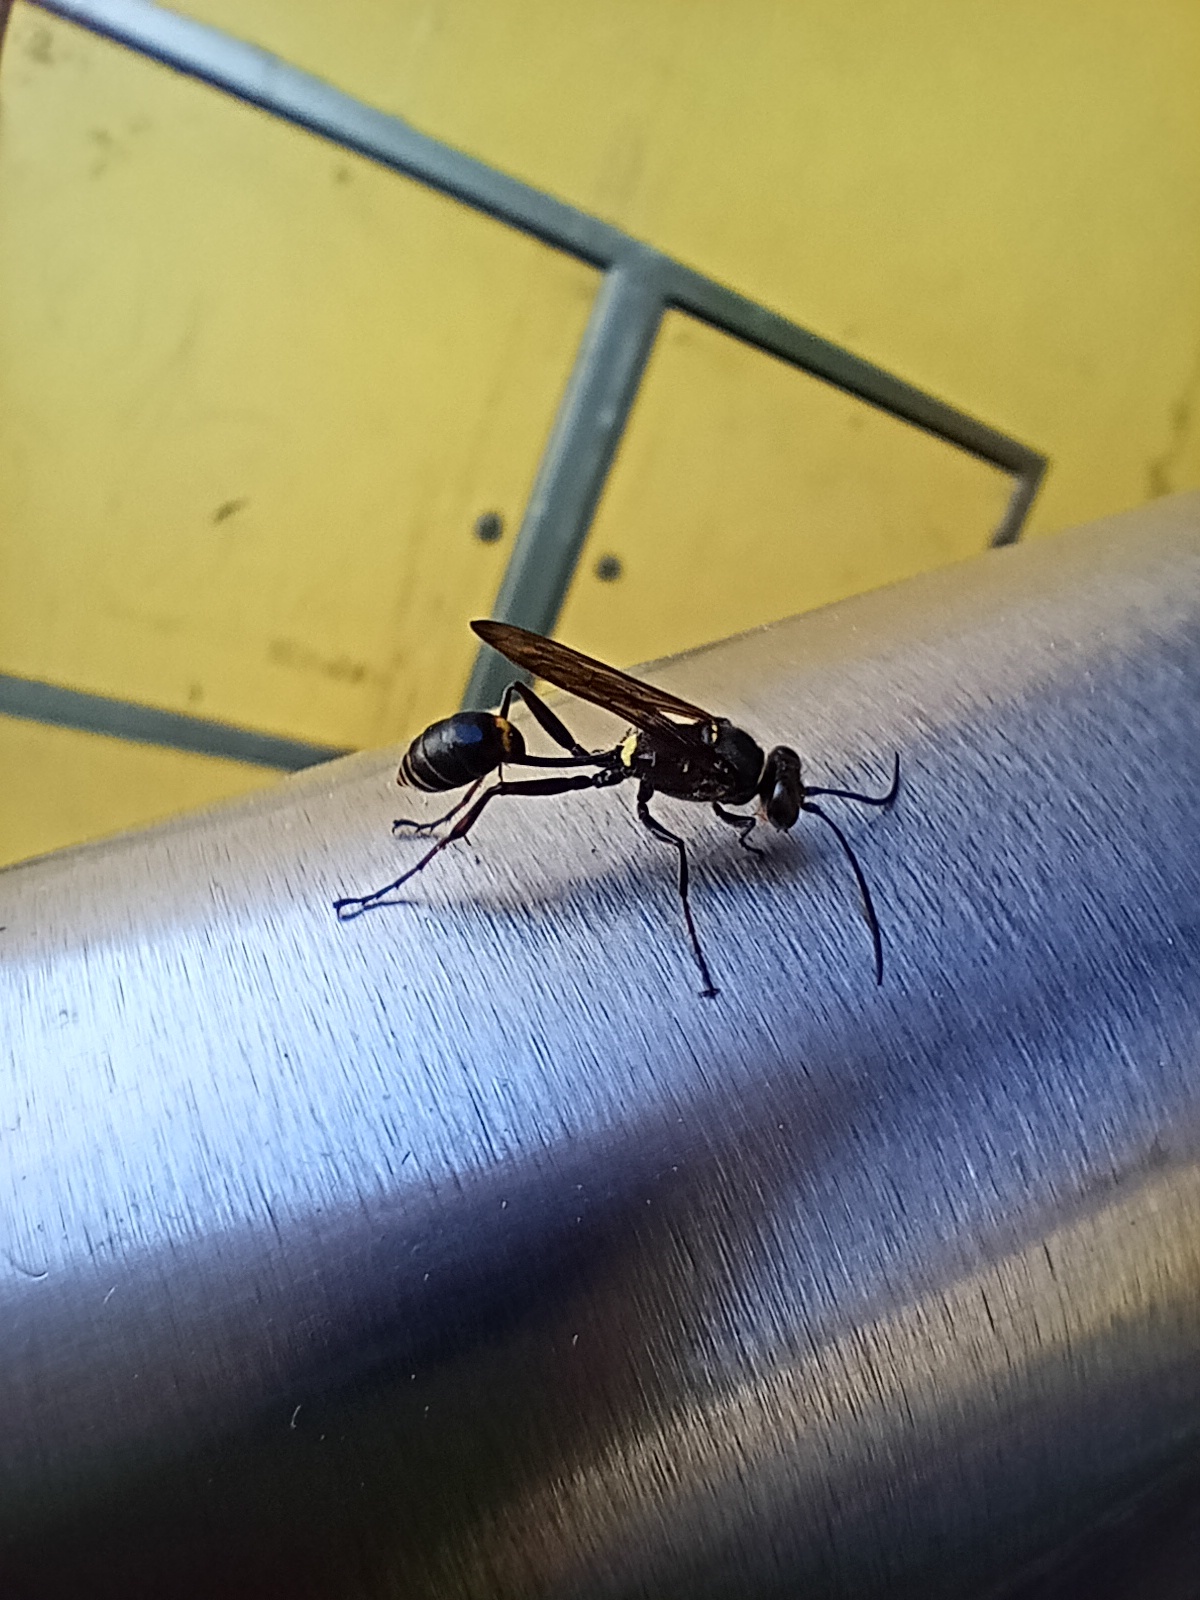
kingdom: Animalia
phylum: Arthropoda
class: Insecta
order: Hymenoptera
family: Sphecidae
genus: Sceliphron
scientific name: Sceliphron curvatum
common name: Pèlopèe
